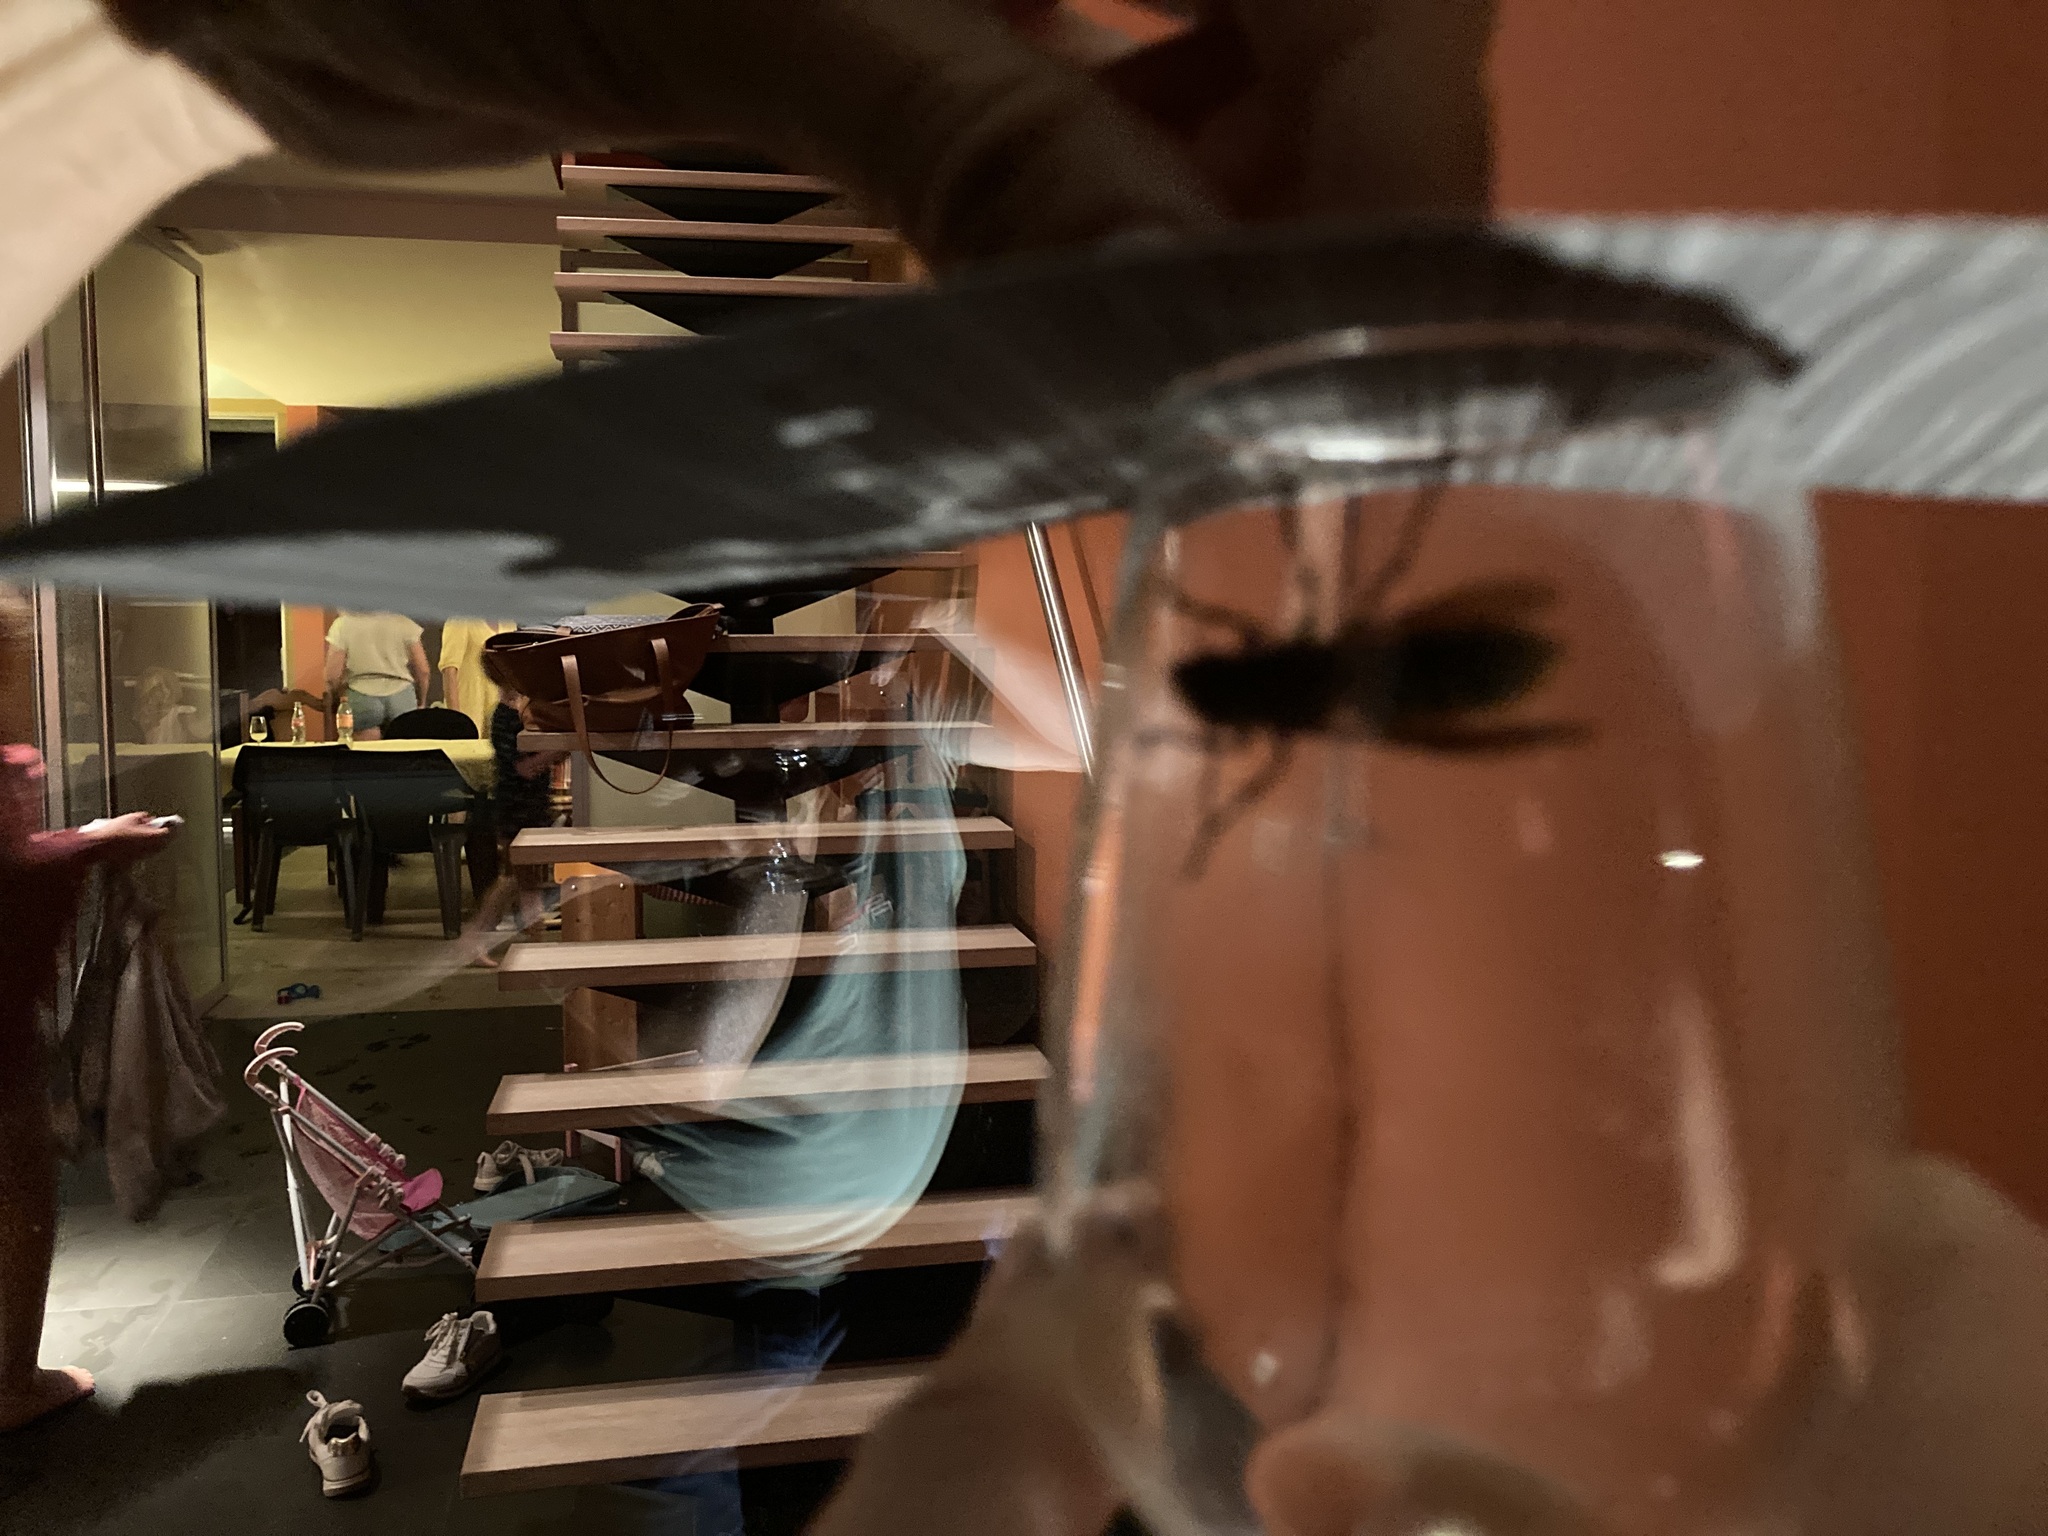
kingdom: Animalia
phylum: Arthropoda
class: Insecta
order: Hymenoptera
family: Vespidae
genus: Vespa
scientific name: Vespa crabro
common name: Hornet
